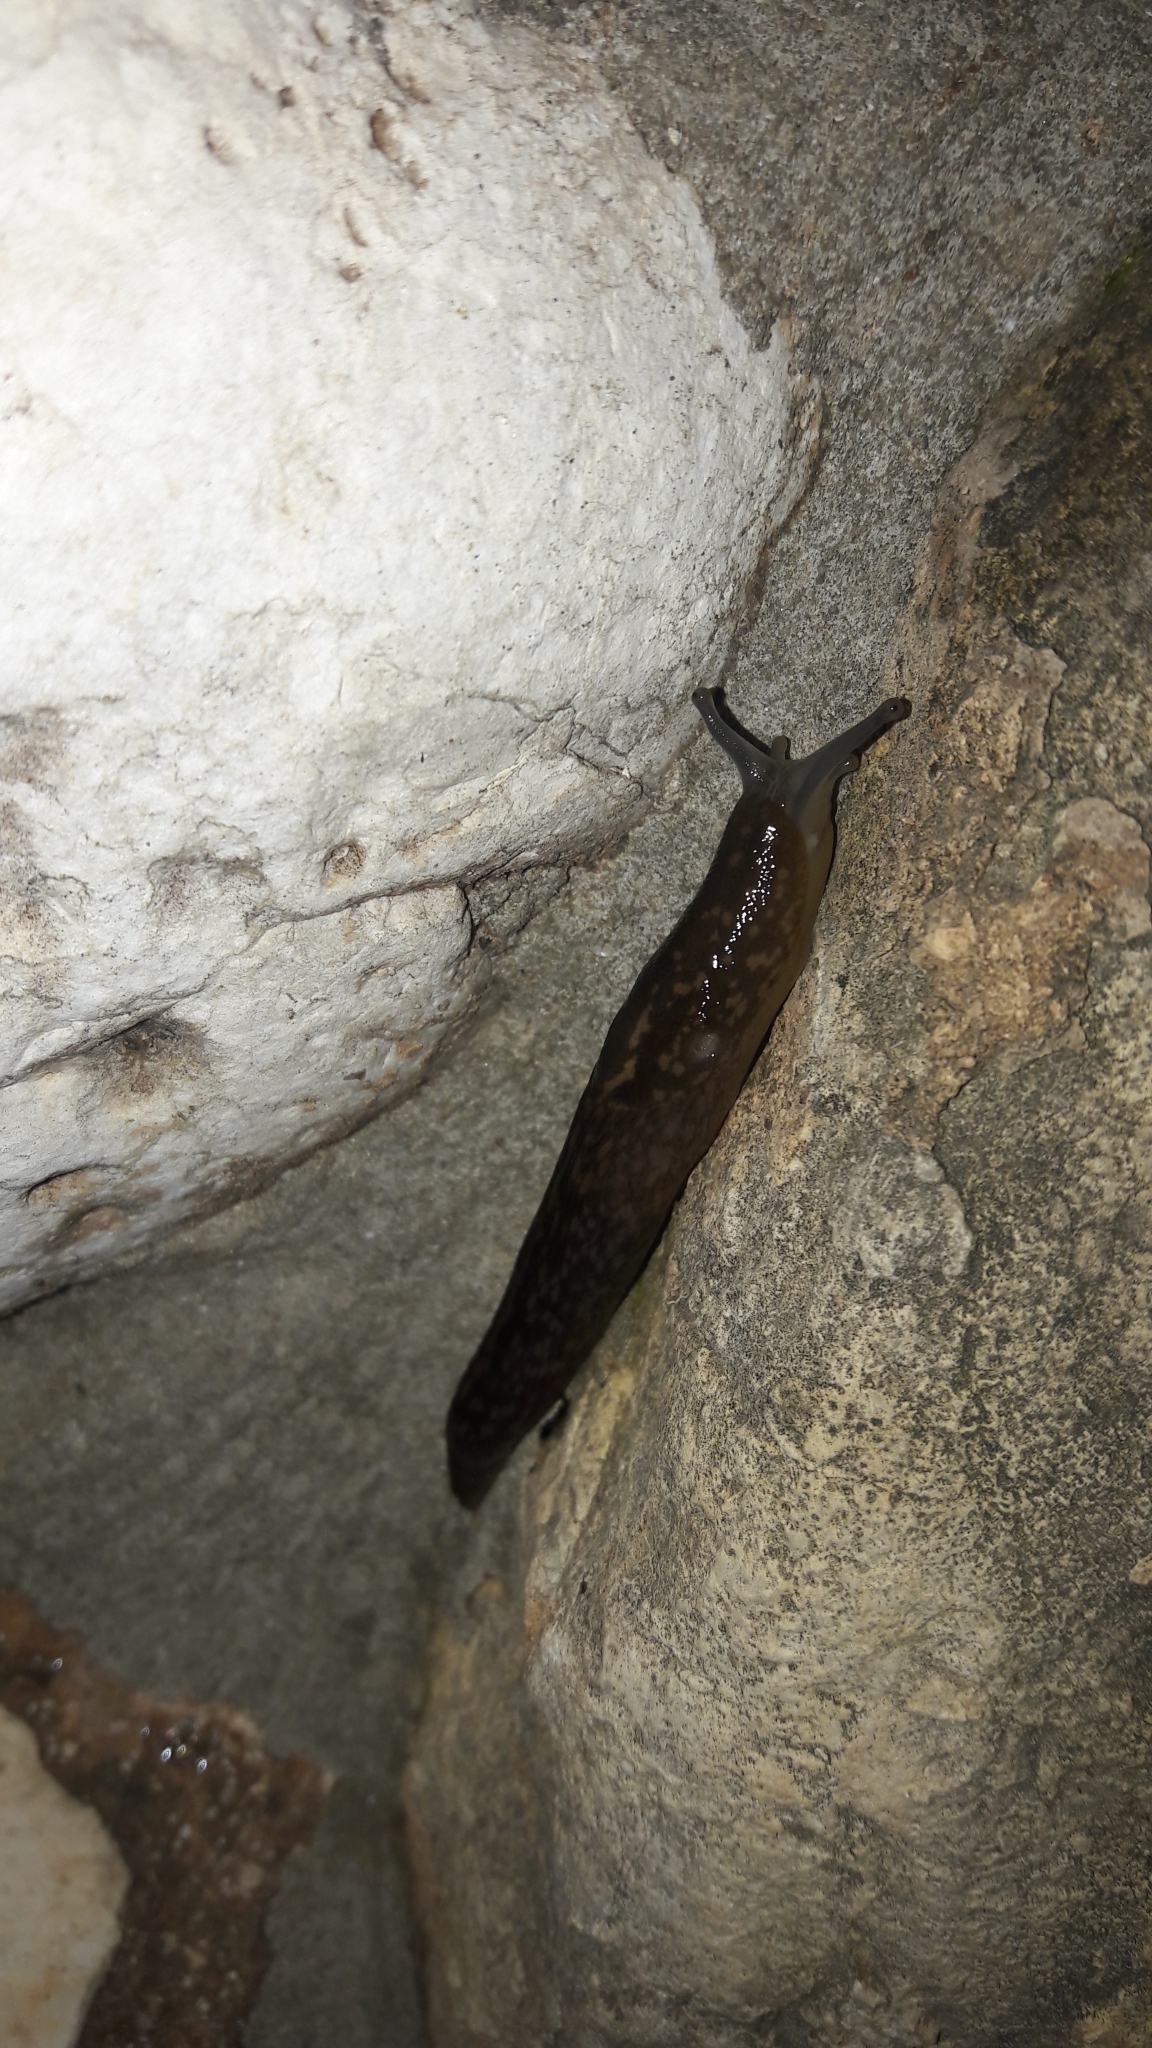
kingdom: Animalia
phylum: Mollusca
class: Gastropoda
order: Stylommatophora
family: Limacidae
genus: Limacus
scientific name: Limacus flavus
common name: Yellow gardenslug
